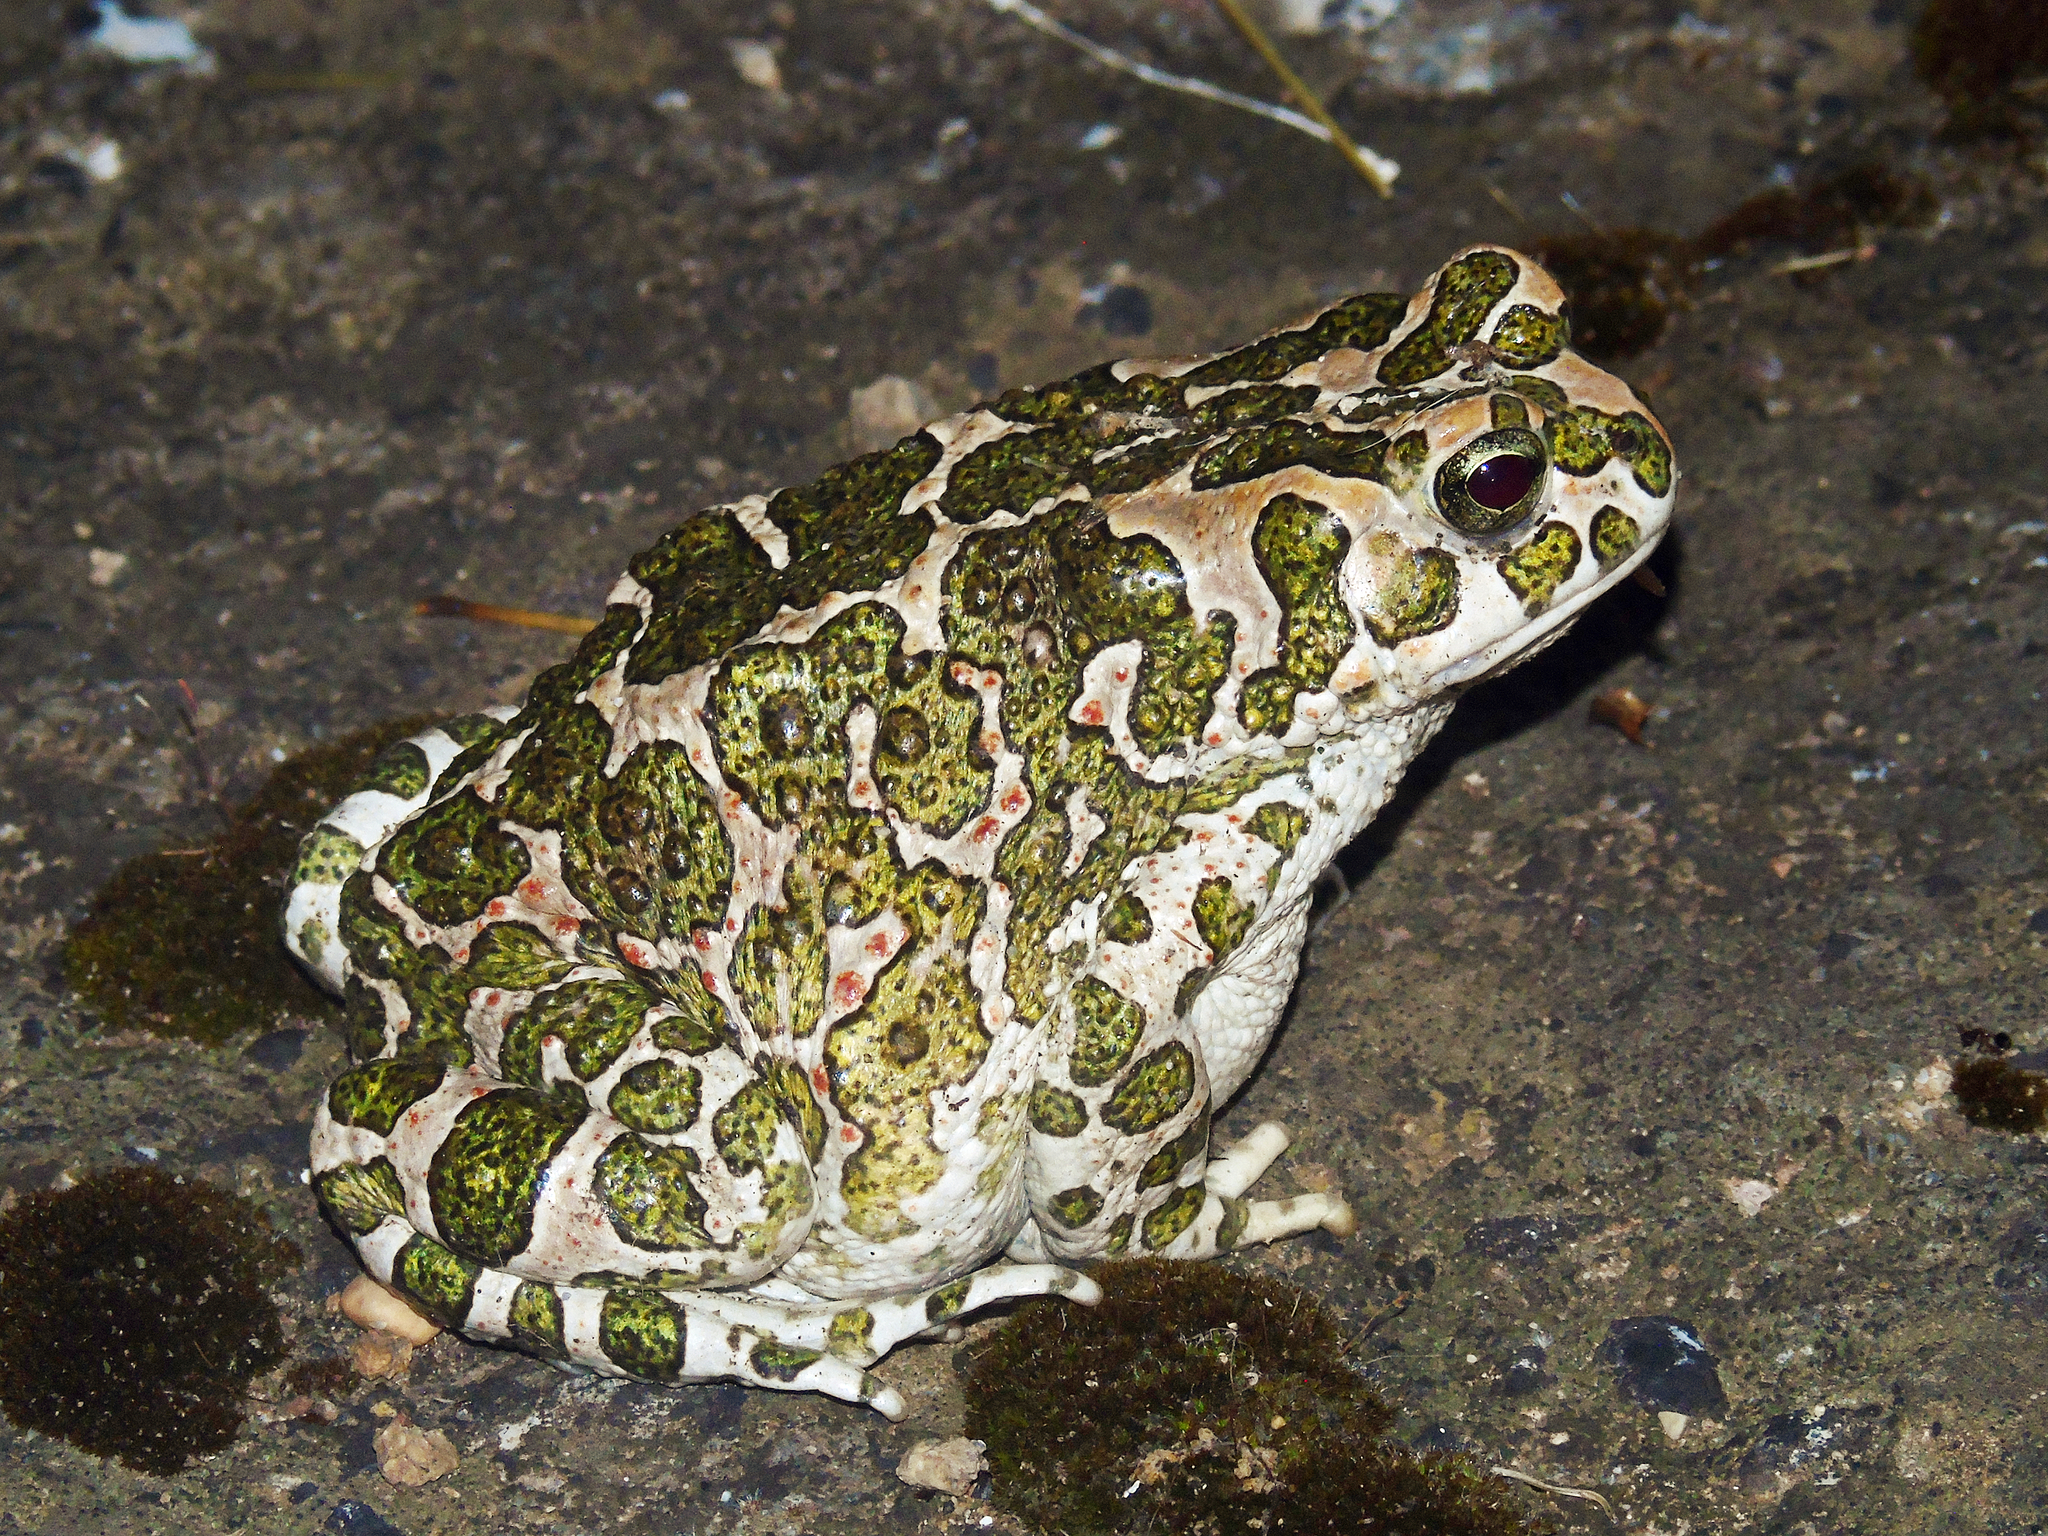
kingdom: Animalia
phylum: Chordata
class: Amphibia
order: Anura
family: Bufonidae
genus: Bufotes
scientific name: Bufotes viridis
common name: European green toad
